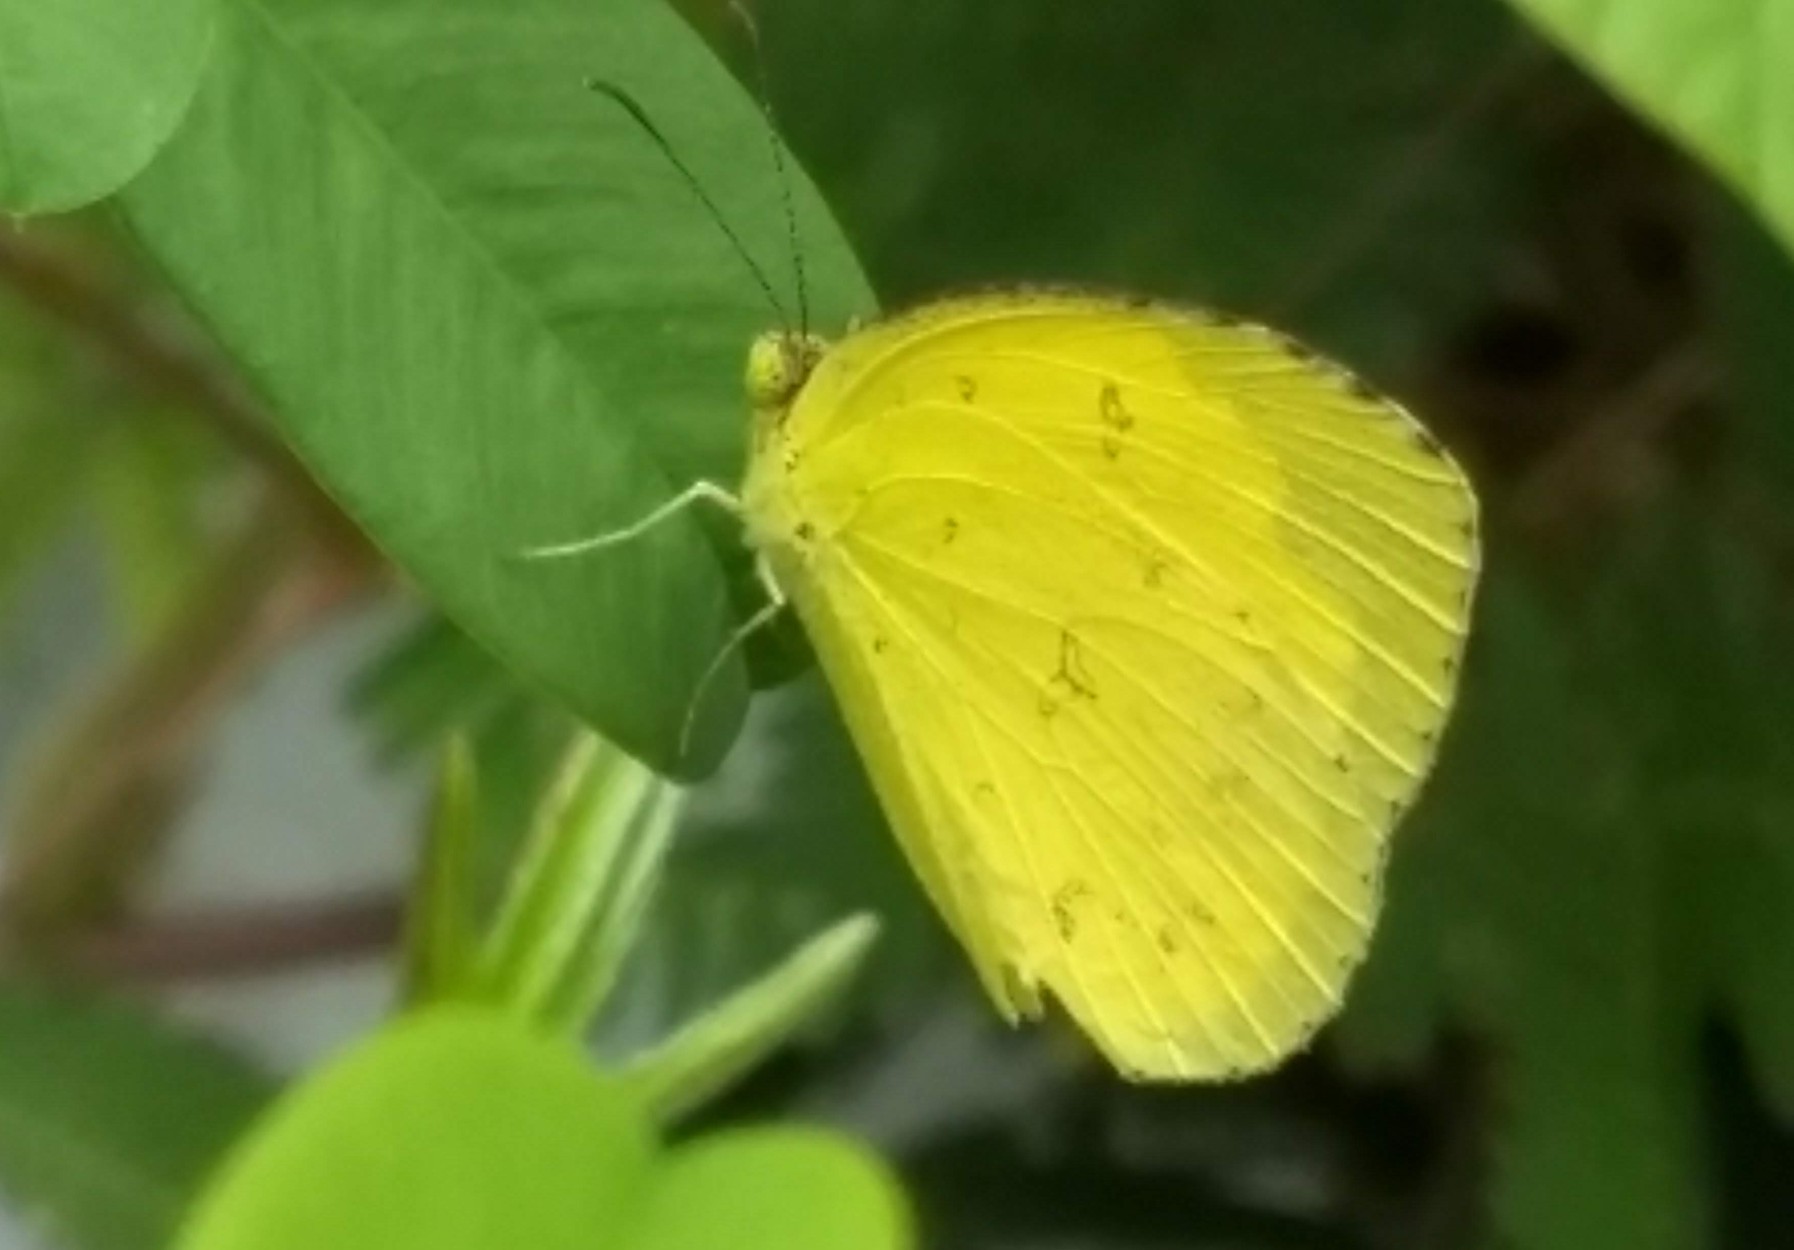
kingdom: Animalia
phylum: Arthropoda
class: Insecta
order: Lepidoptera
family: Pieridae
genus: Eurema
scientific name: Eurema hecabe
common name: Pale grass yellow
